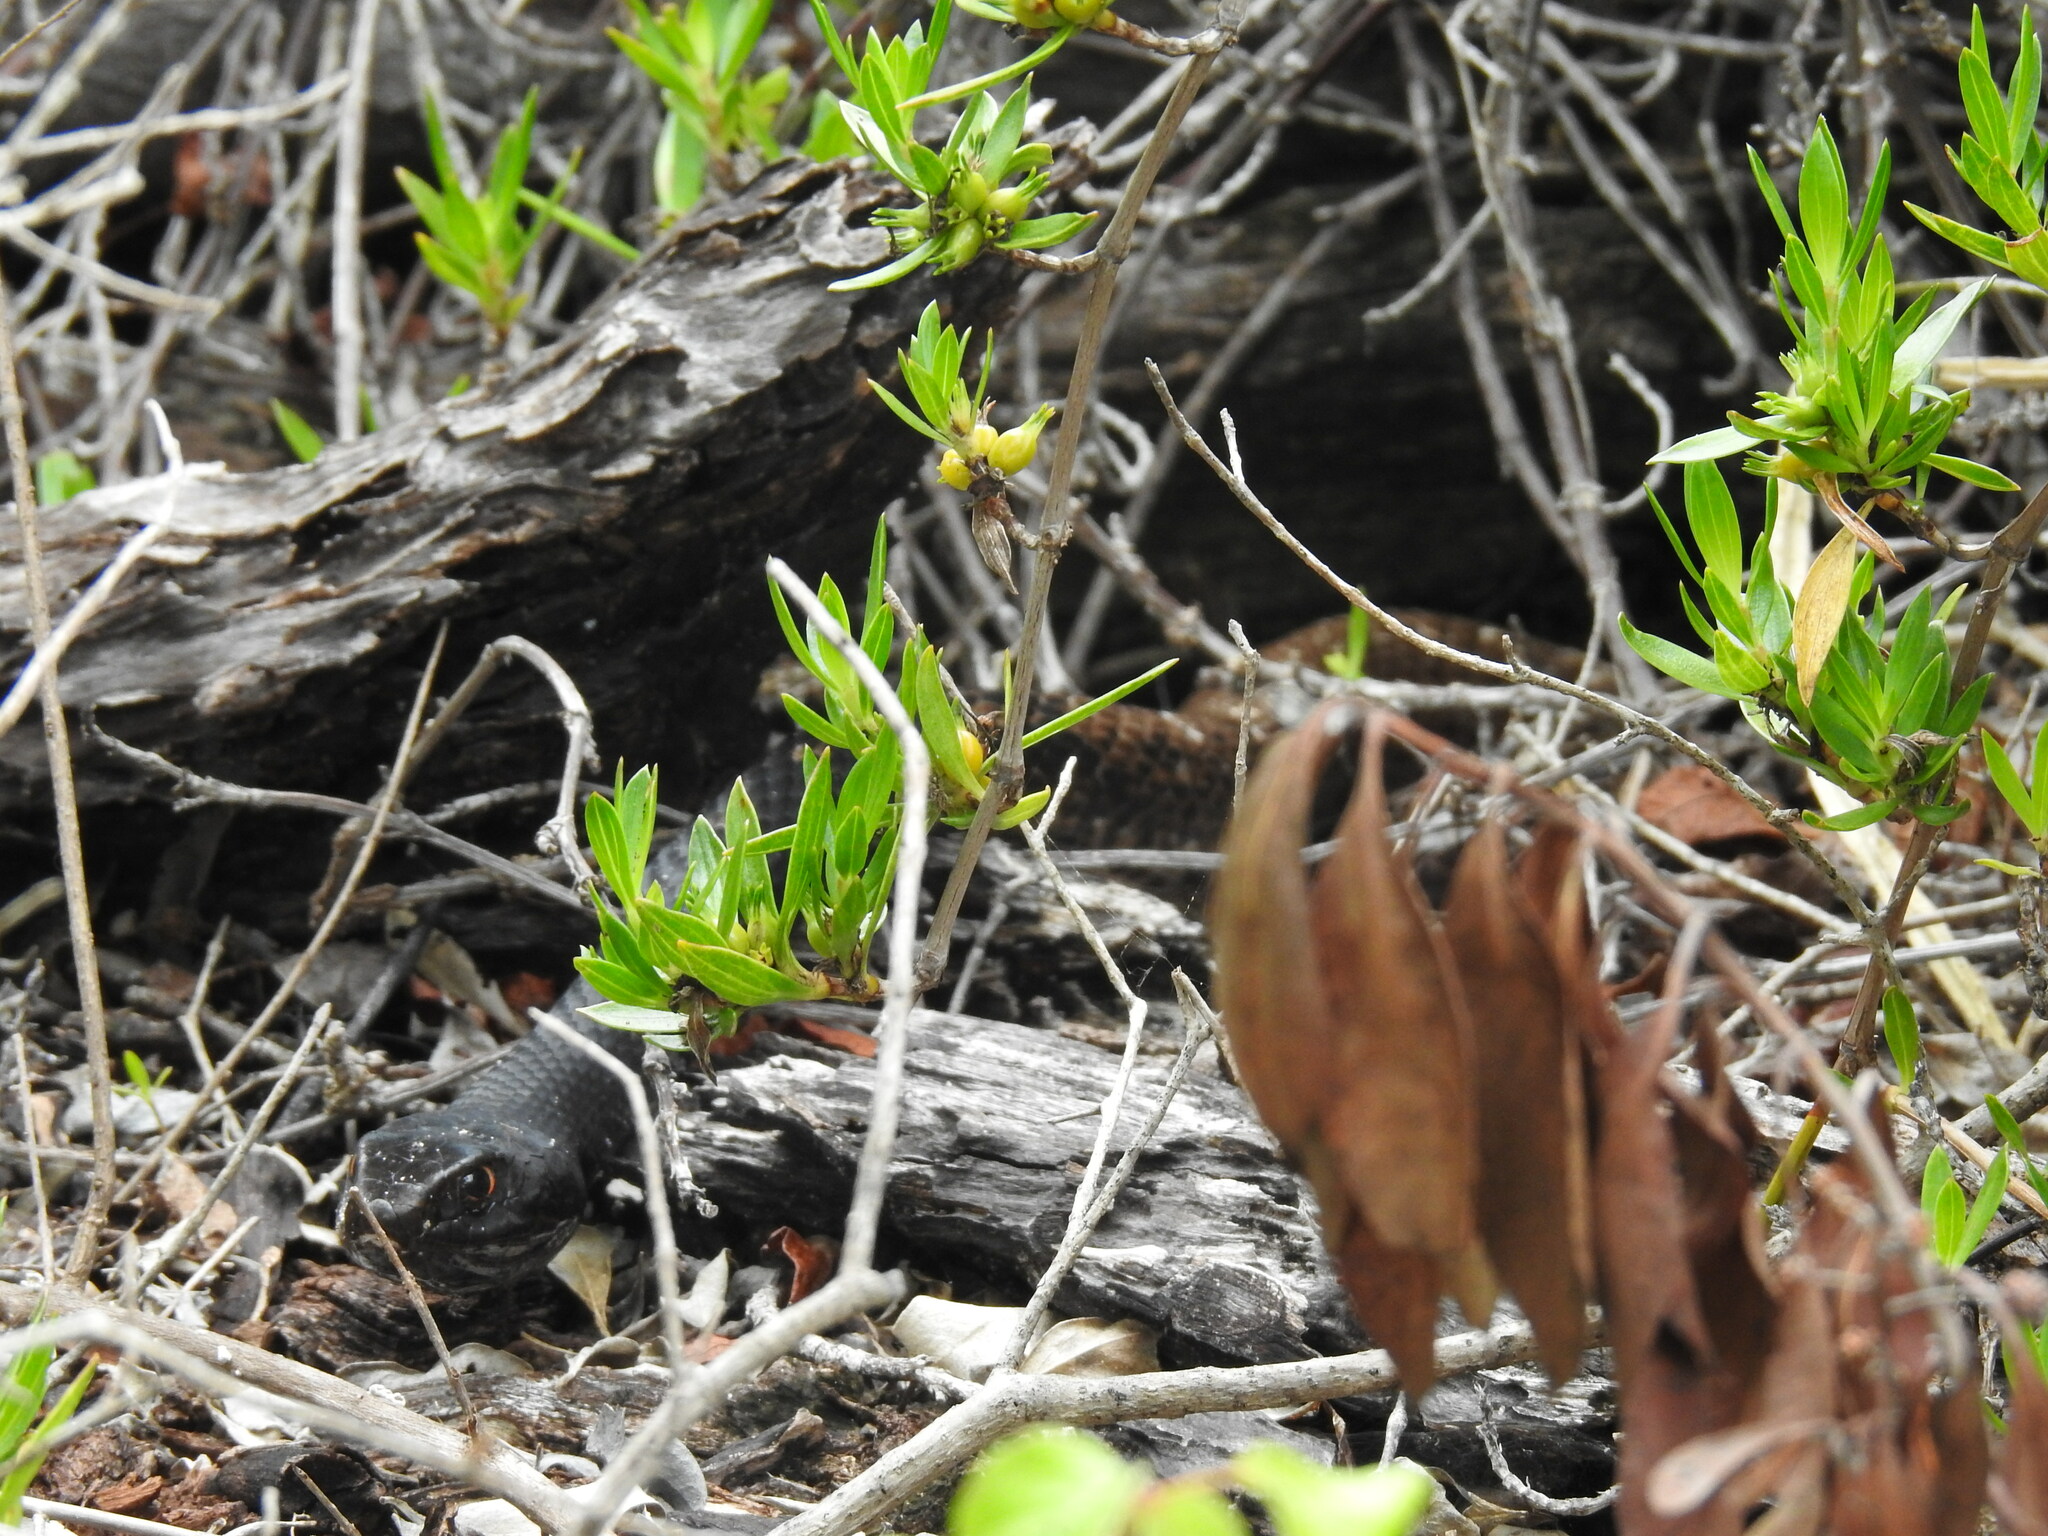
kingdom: Animalia
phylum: Chordata
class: Squamata
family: Colubridae
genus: Masticophis
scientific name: Masticophis flagellum
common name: Coachwhip
